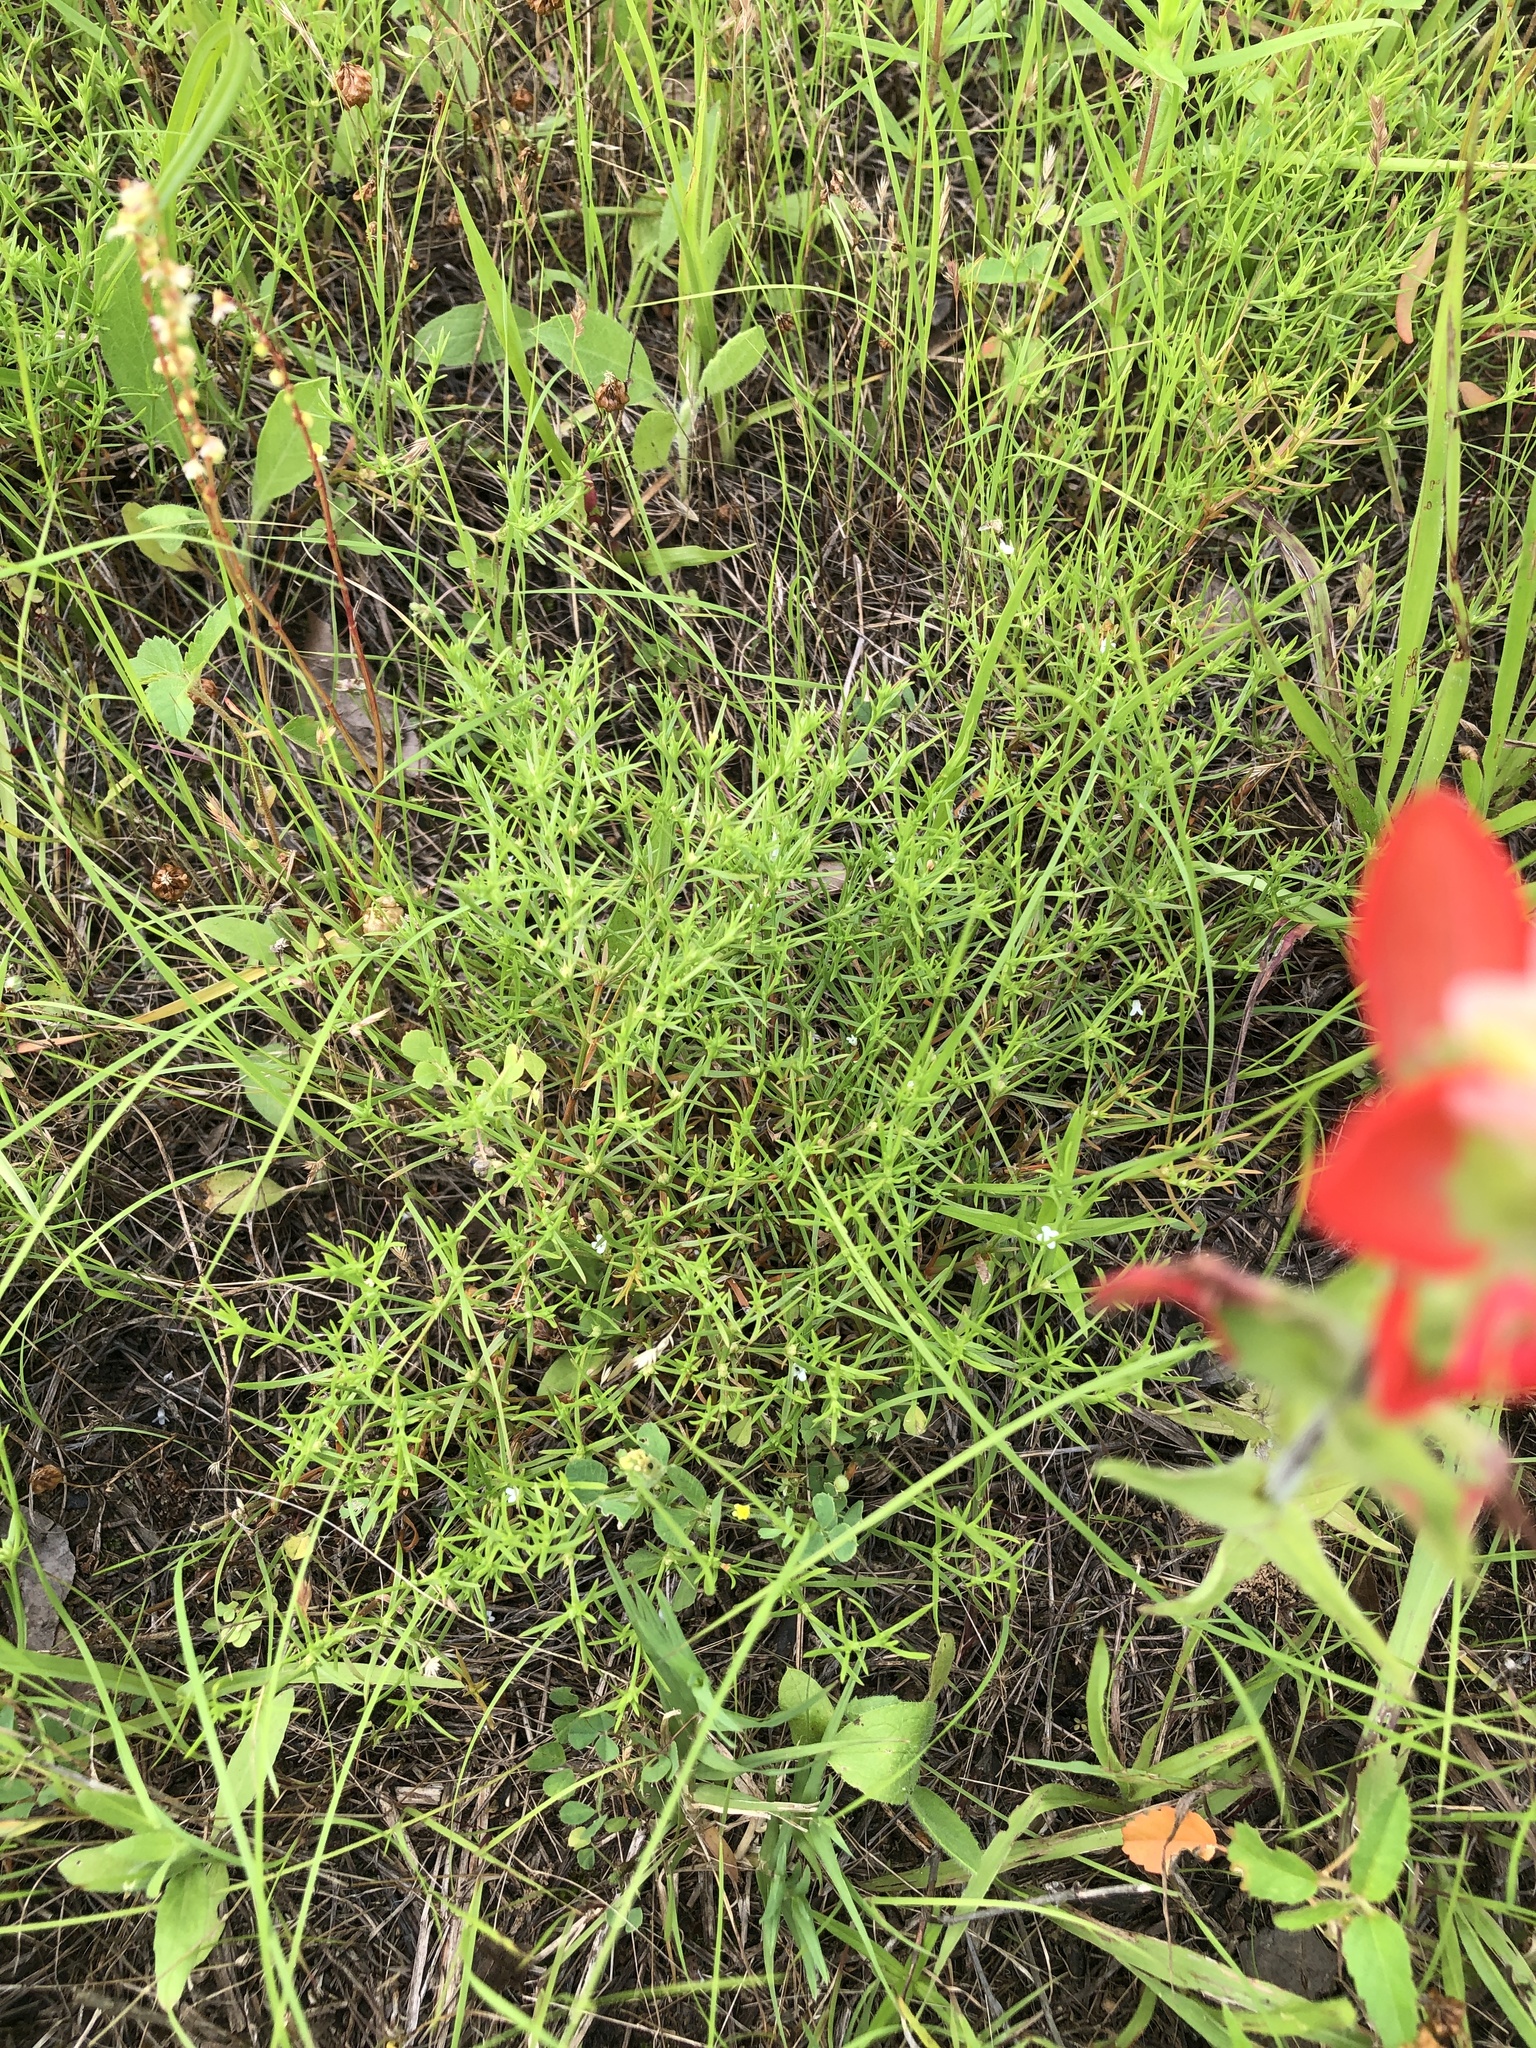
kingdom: Plantae
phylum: Tracheophyta
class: Magnoliopsida
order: Lamiales
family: Tetrachondraceae
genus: Polypremum
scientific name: Polypremum procumbens
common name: Juniper-leaf
